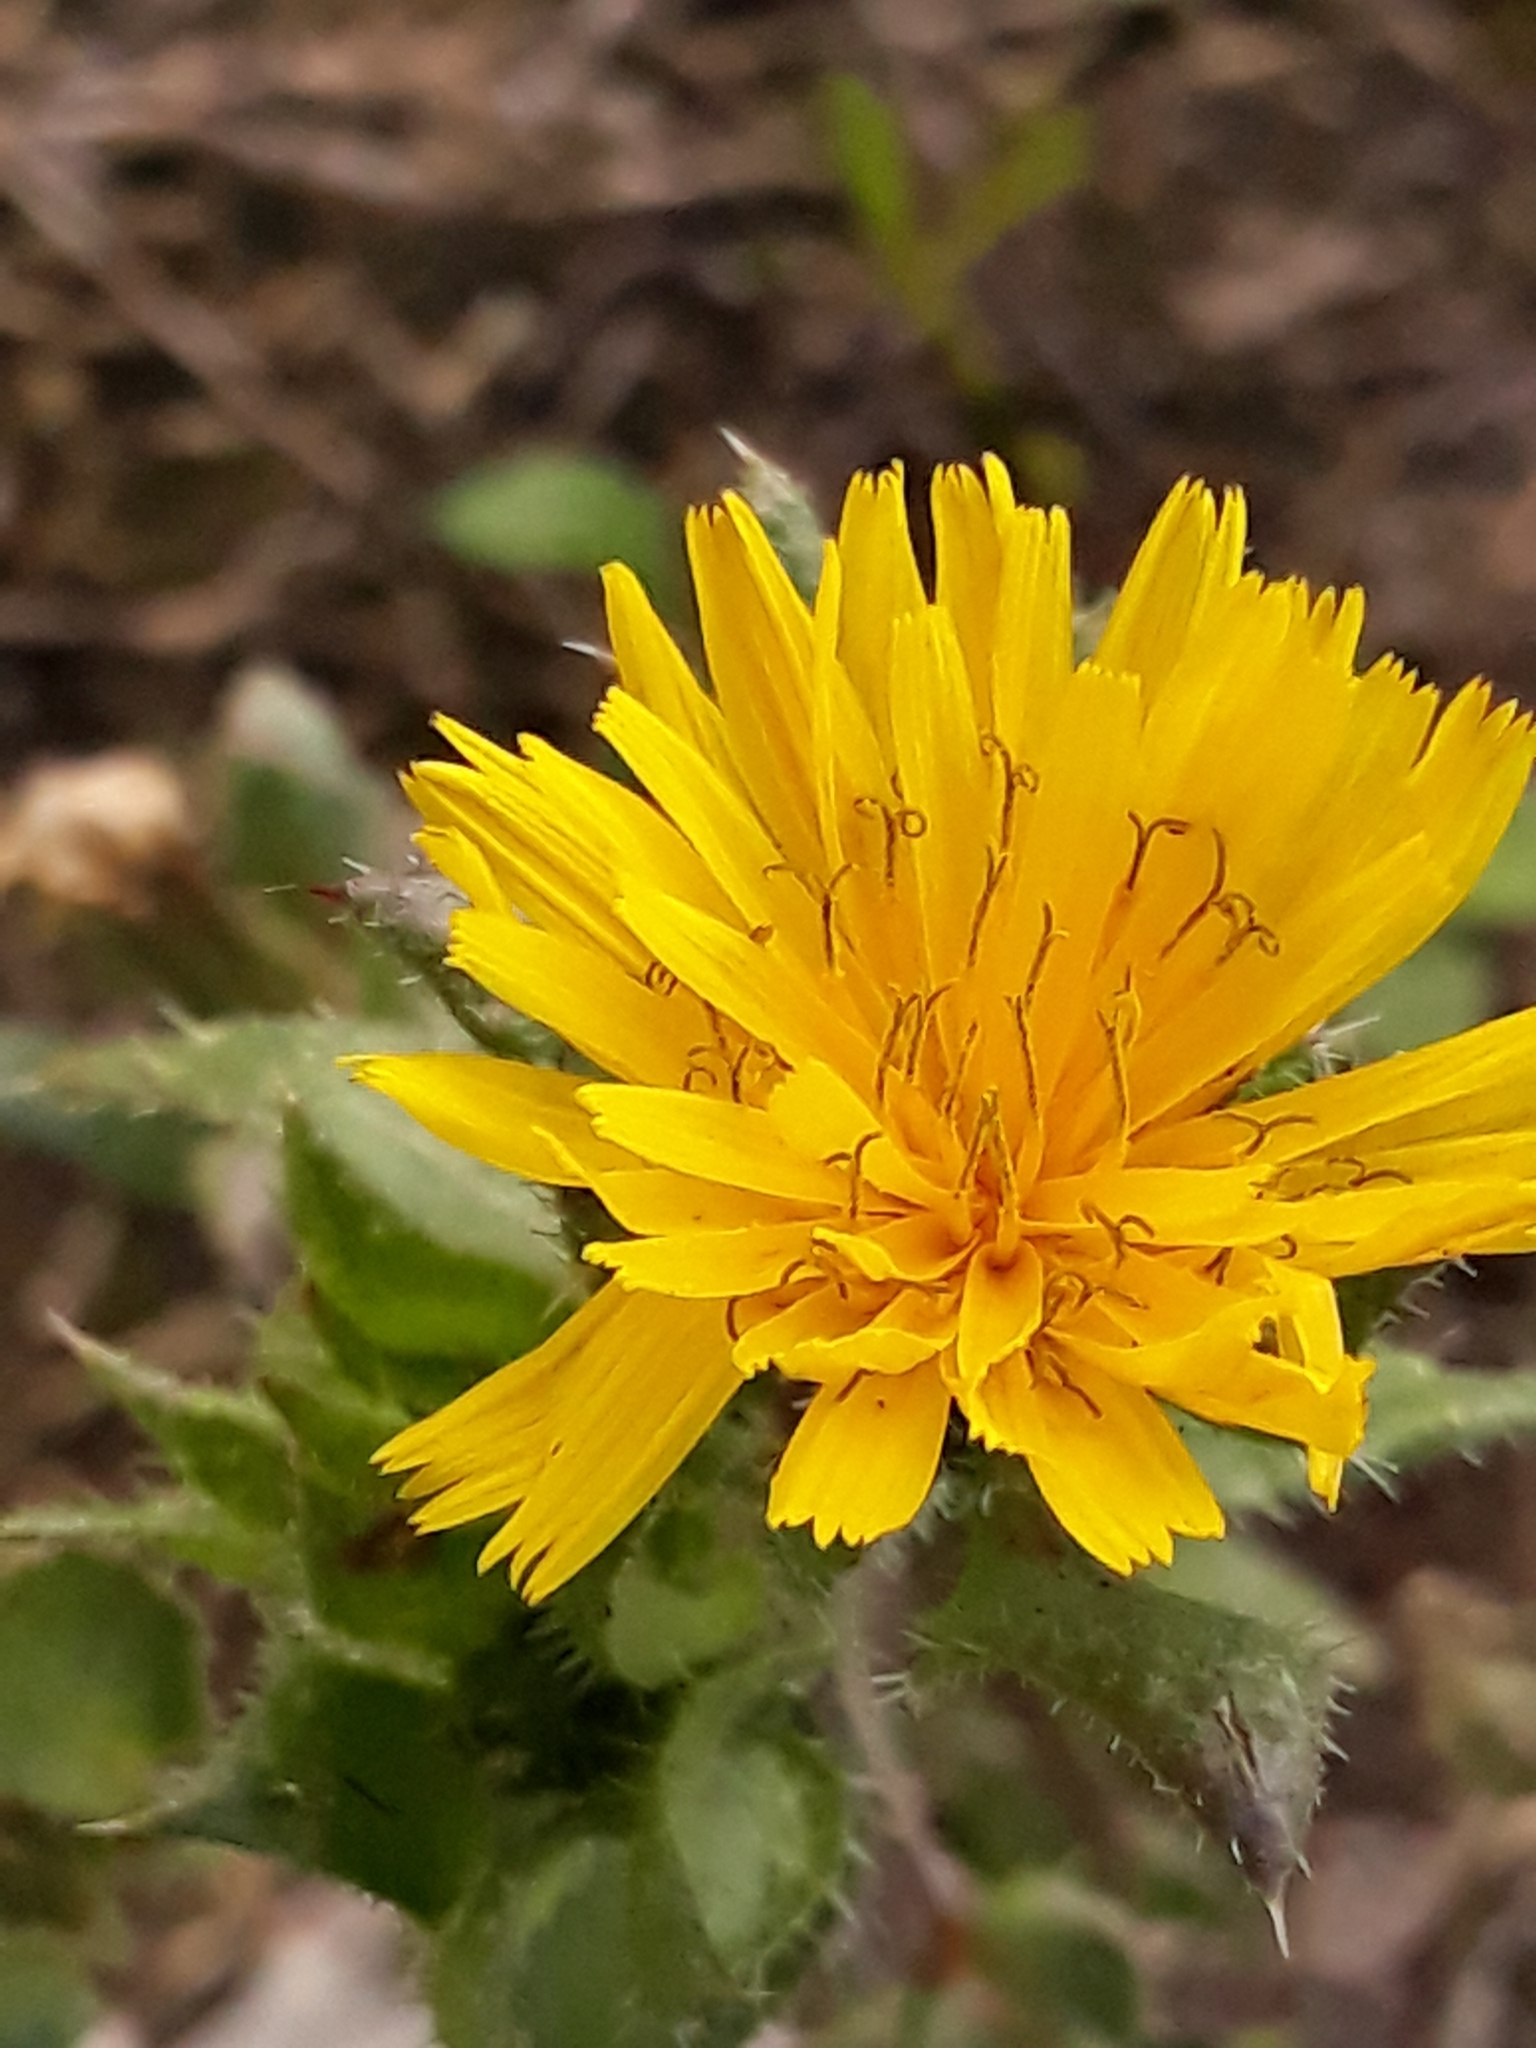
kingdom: Plantae
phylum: Tracheophyta
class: Magnoliopsida
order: Asterales
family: Asteraceae
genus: Helminthotheca
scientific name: Helminthotheca echioides
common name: Ox-tongue
